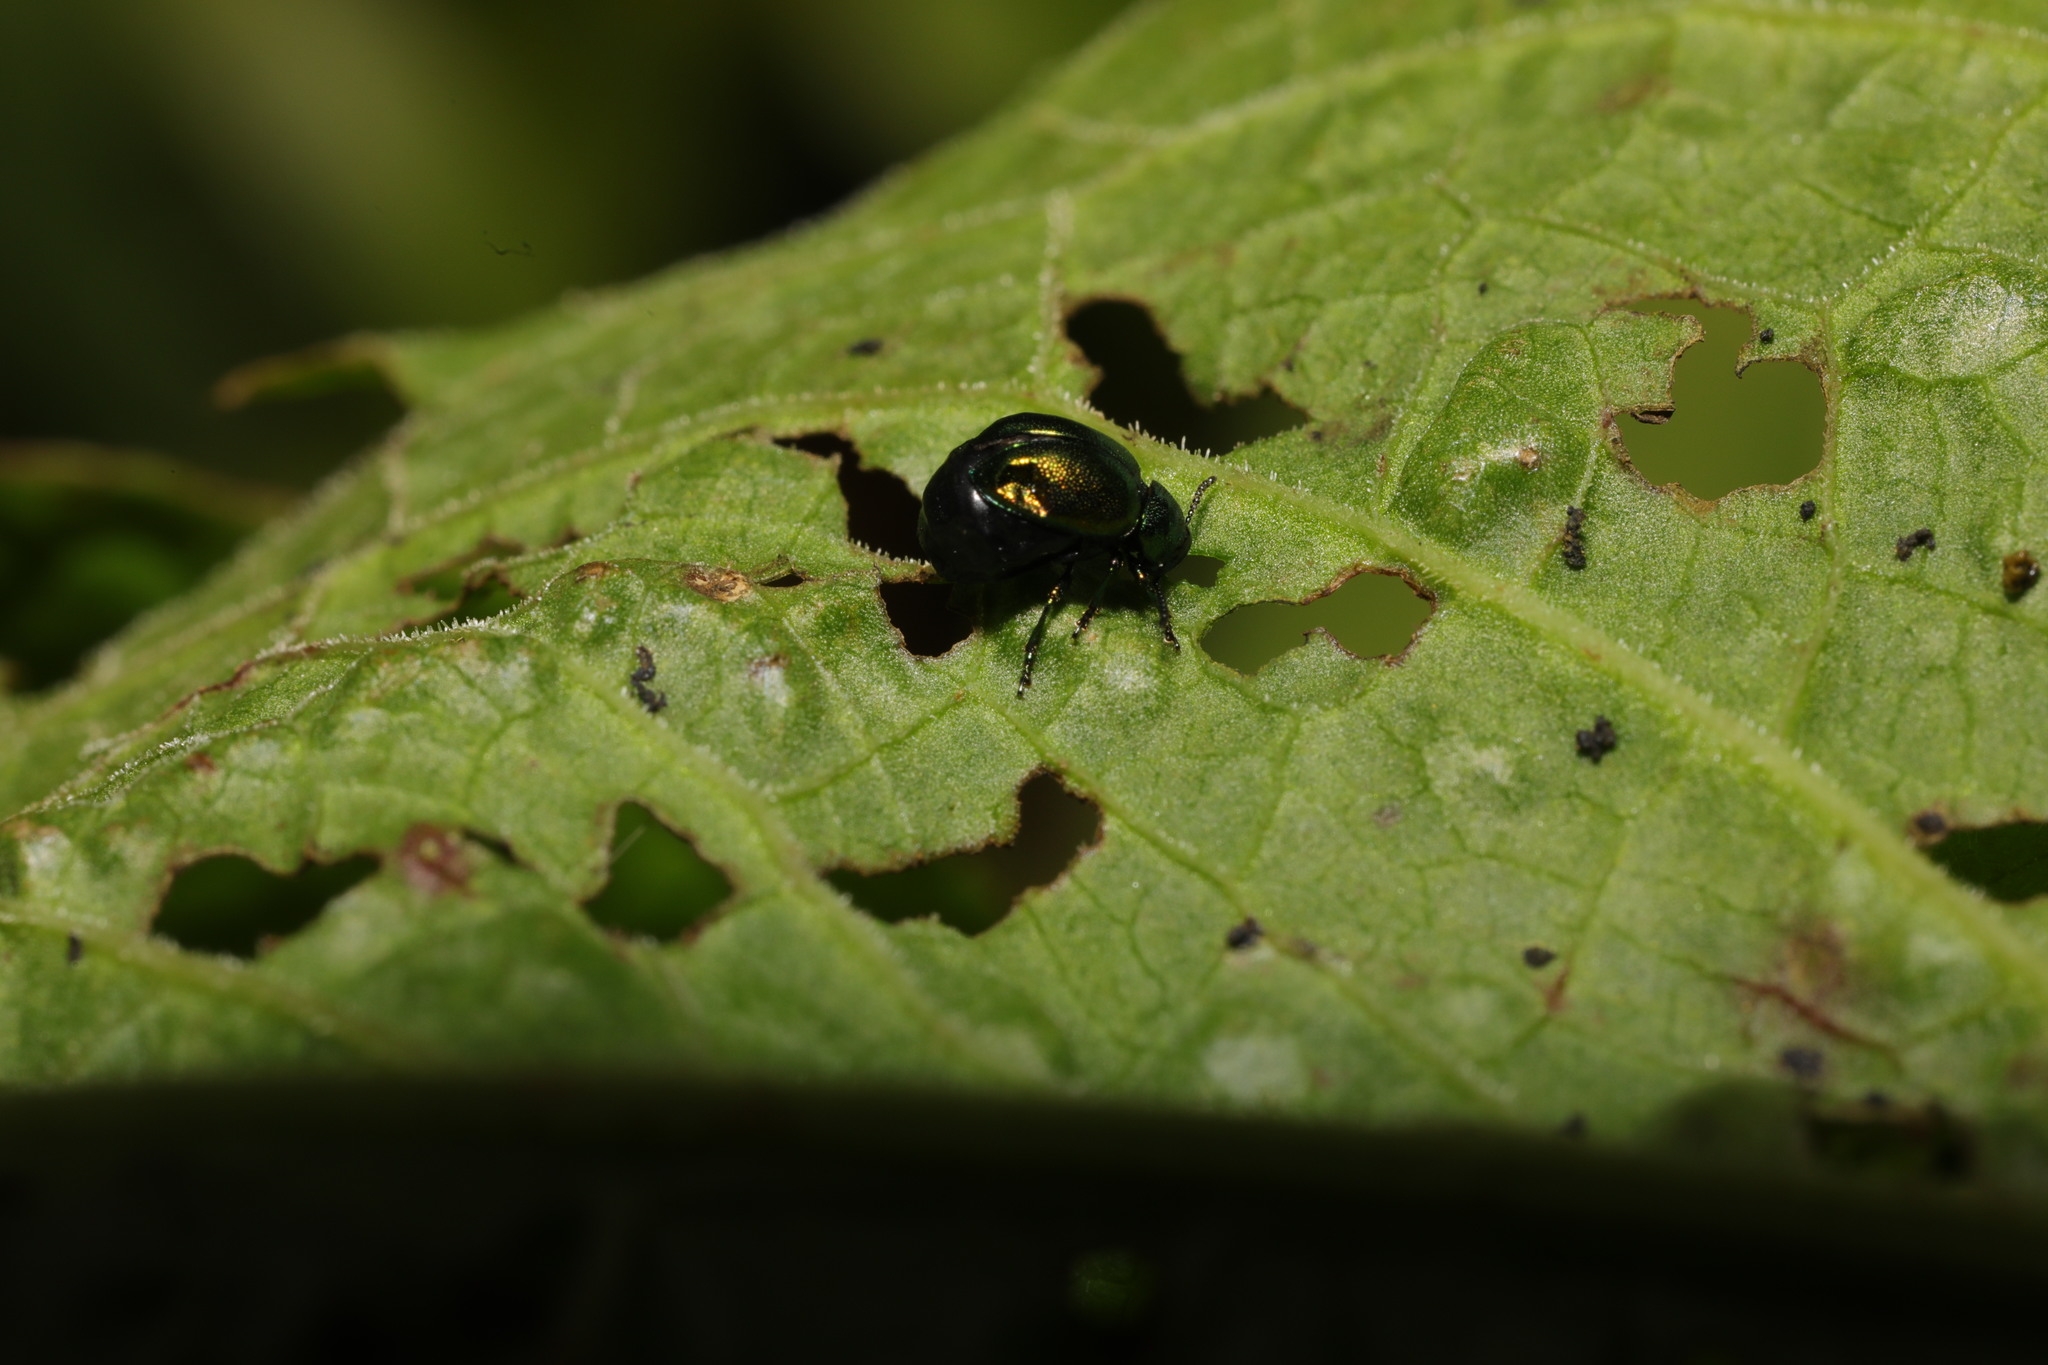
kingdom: Animalia
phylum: Arthropoda
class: Insecta
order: Coleoptera
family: Chrysomelidae
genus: Gastrophysa
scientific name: Gastrophysa viridula
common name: Green dock beetle
